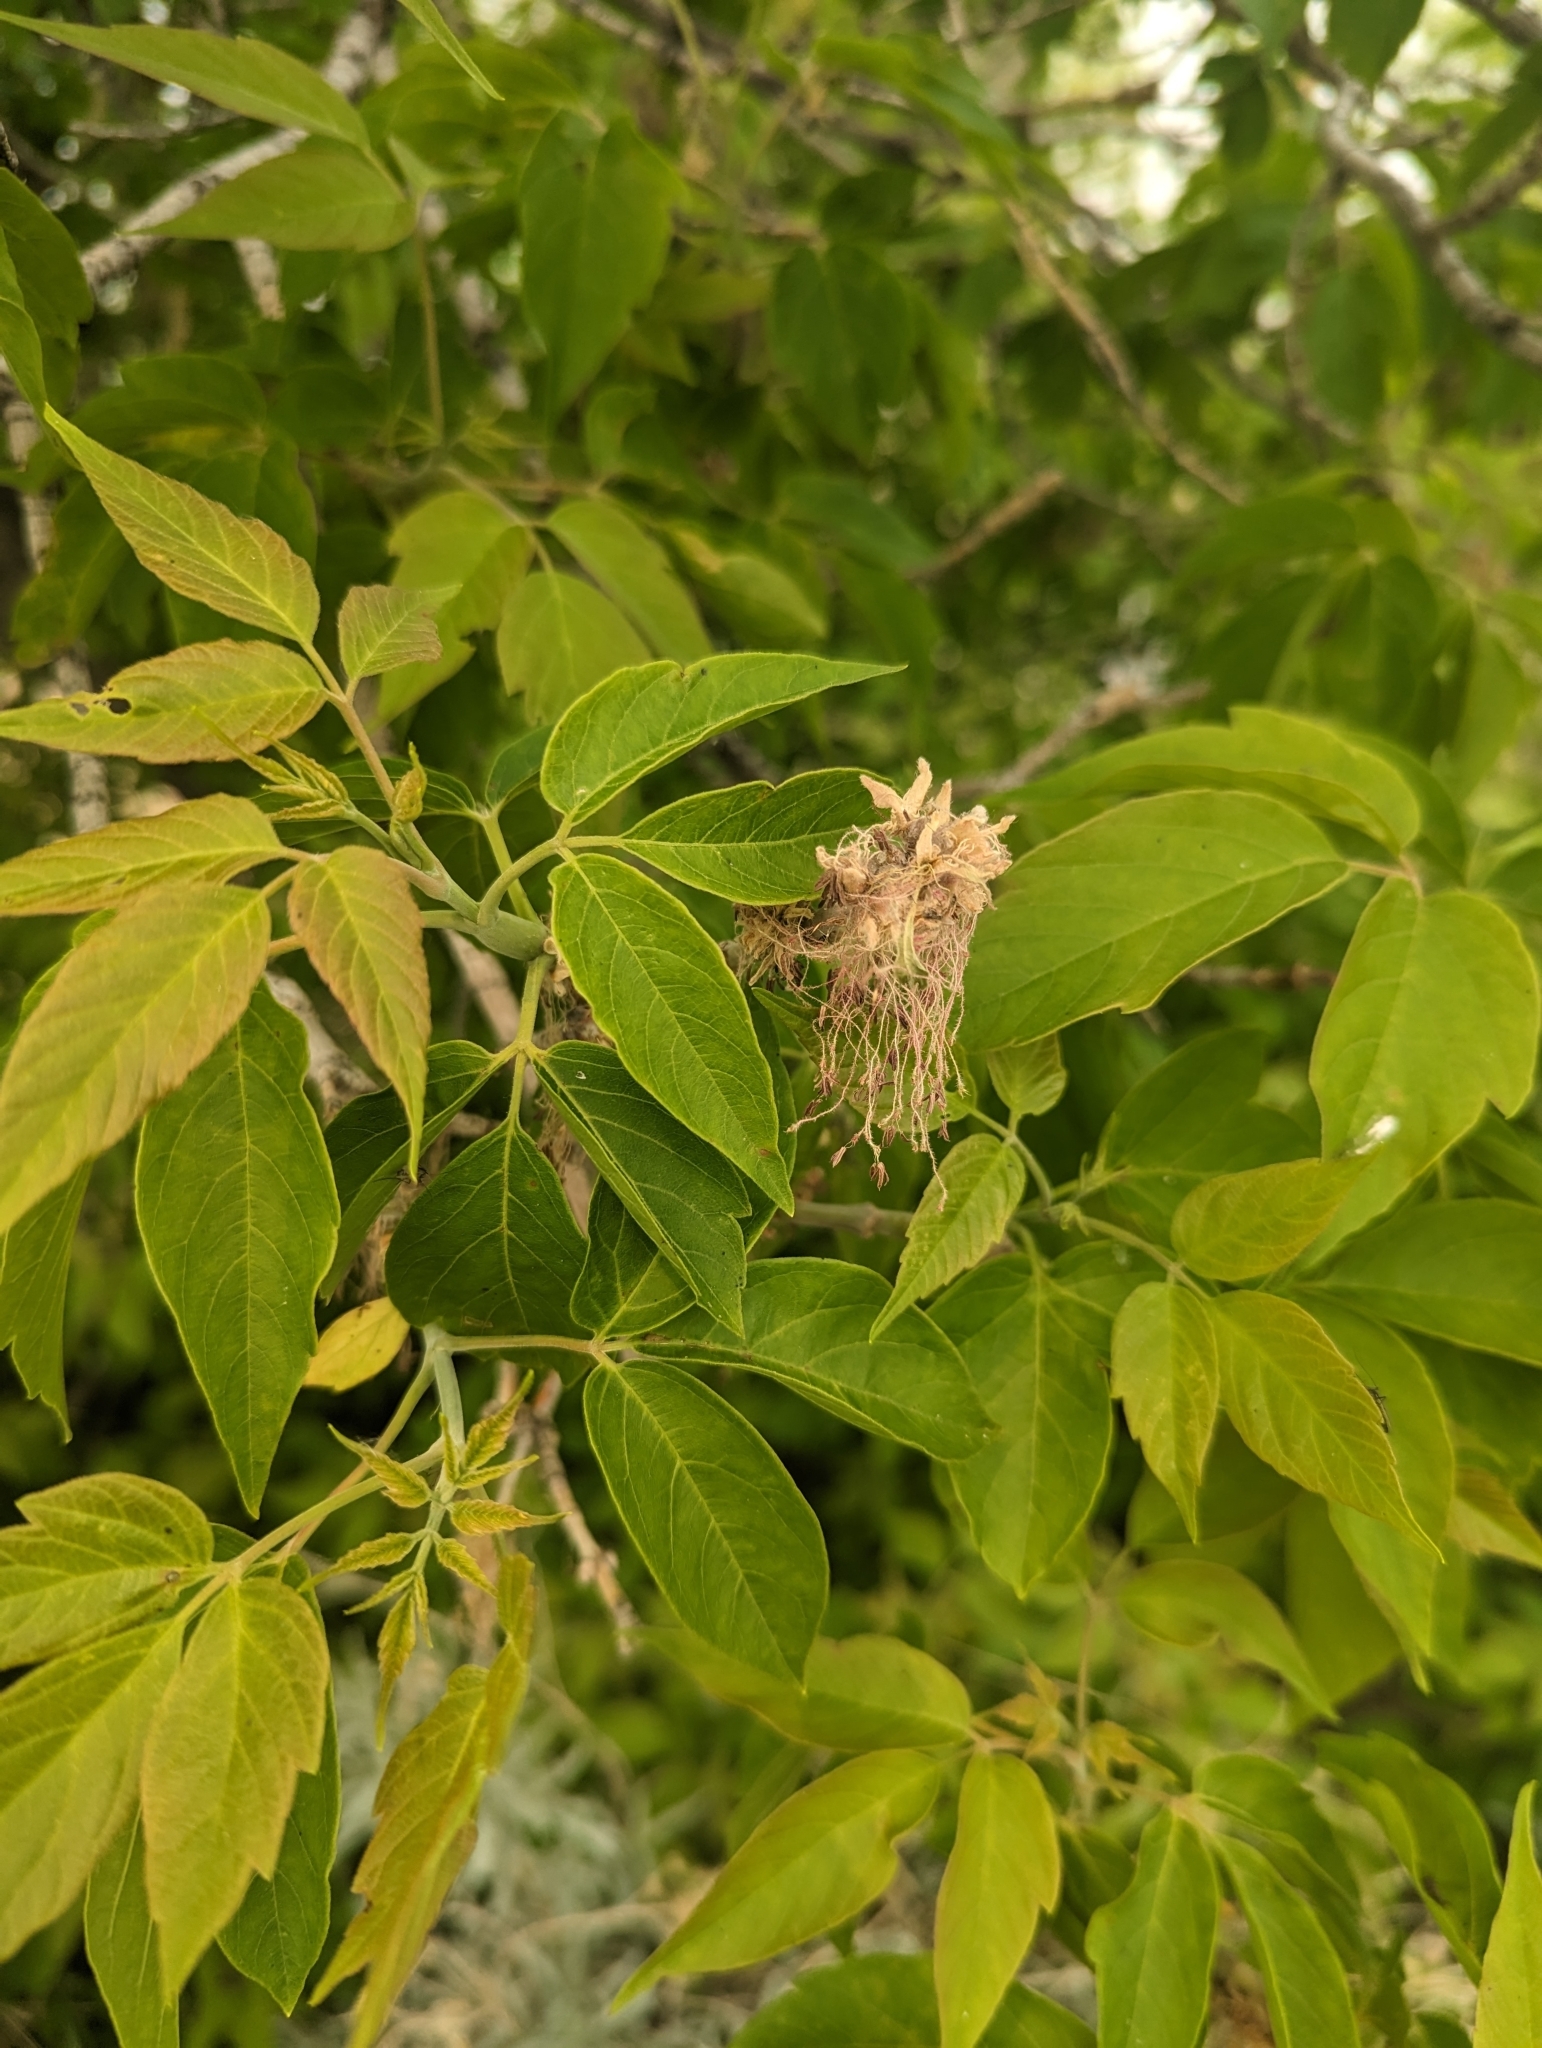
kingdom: Plantae
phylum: Tracheophyta
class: Magnoliopsida
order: Sapindales
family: Sapindaceae
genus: Acer
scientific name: Acer negundo
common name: Ashleaf maple
